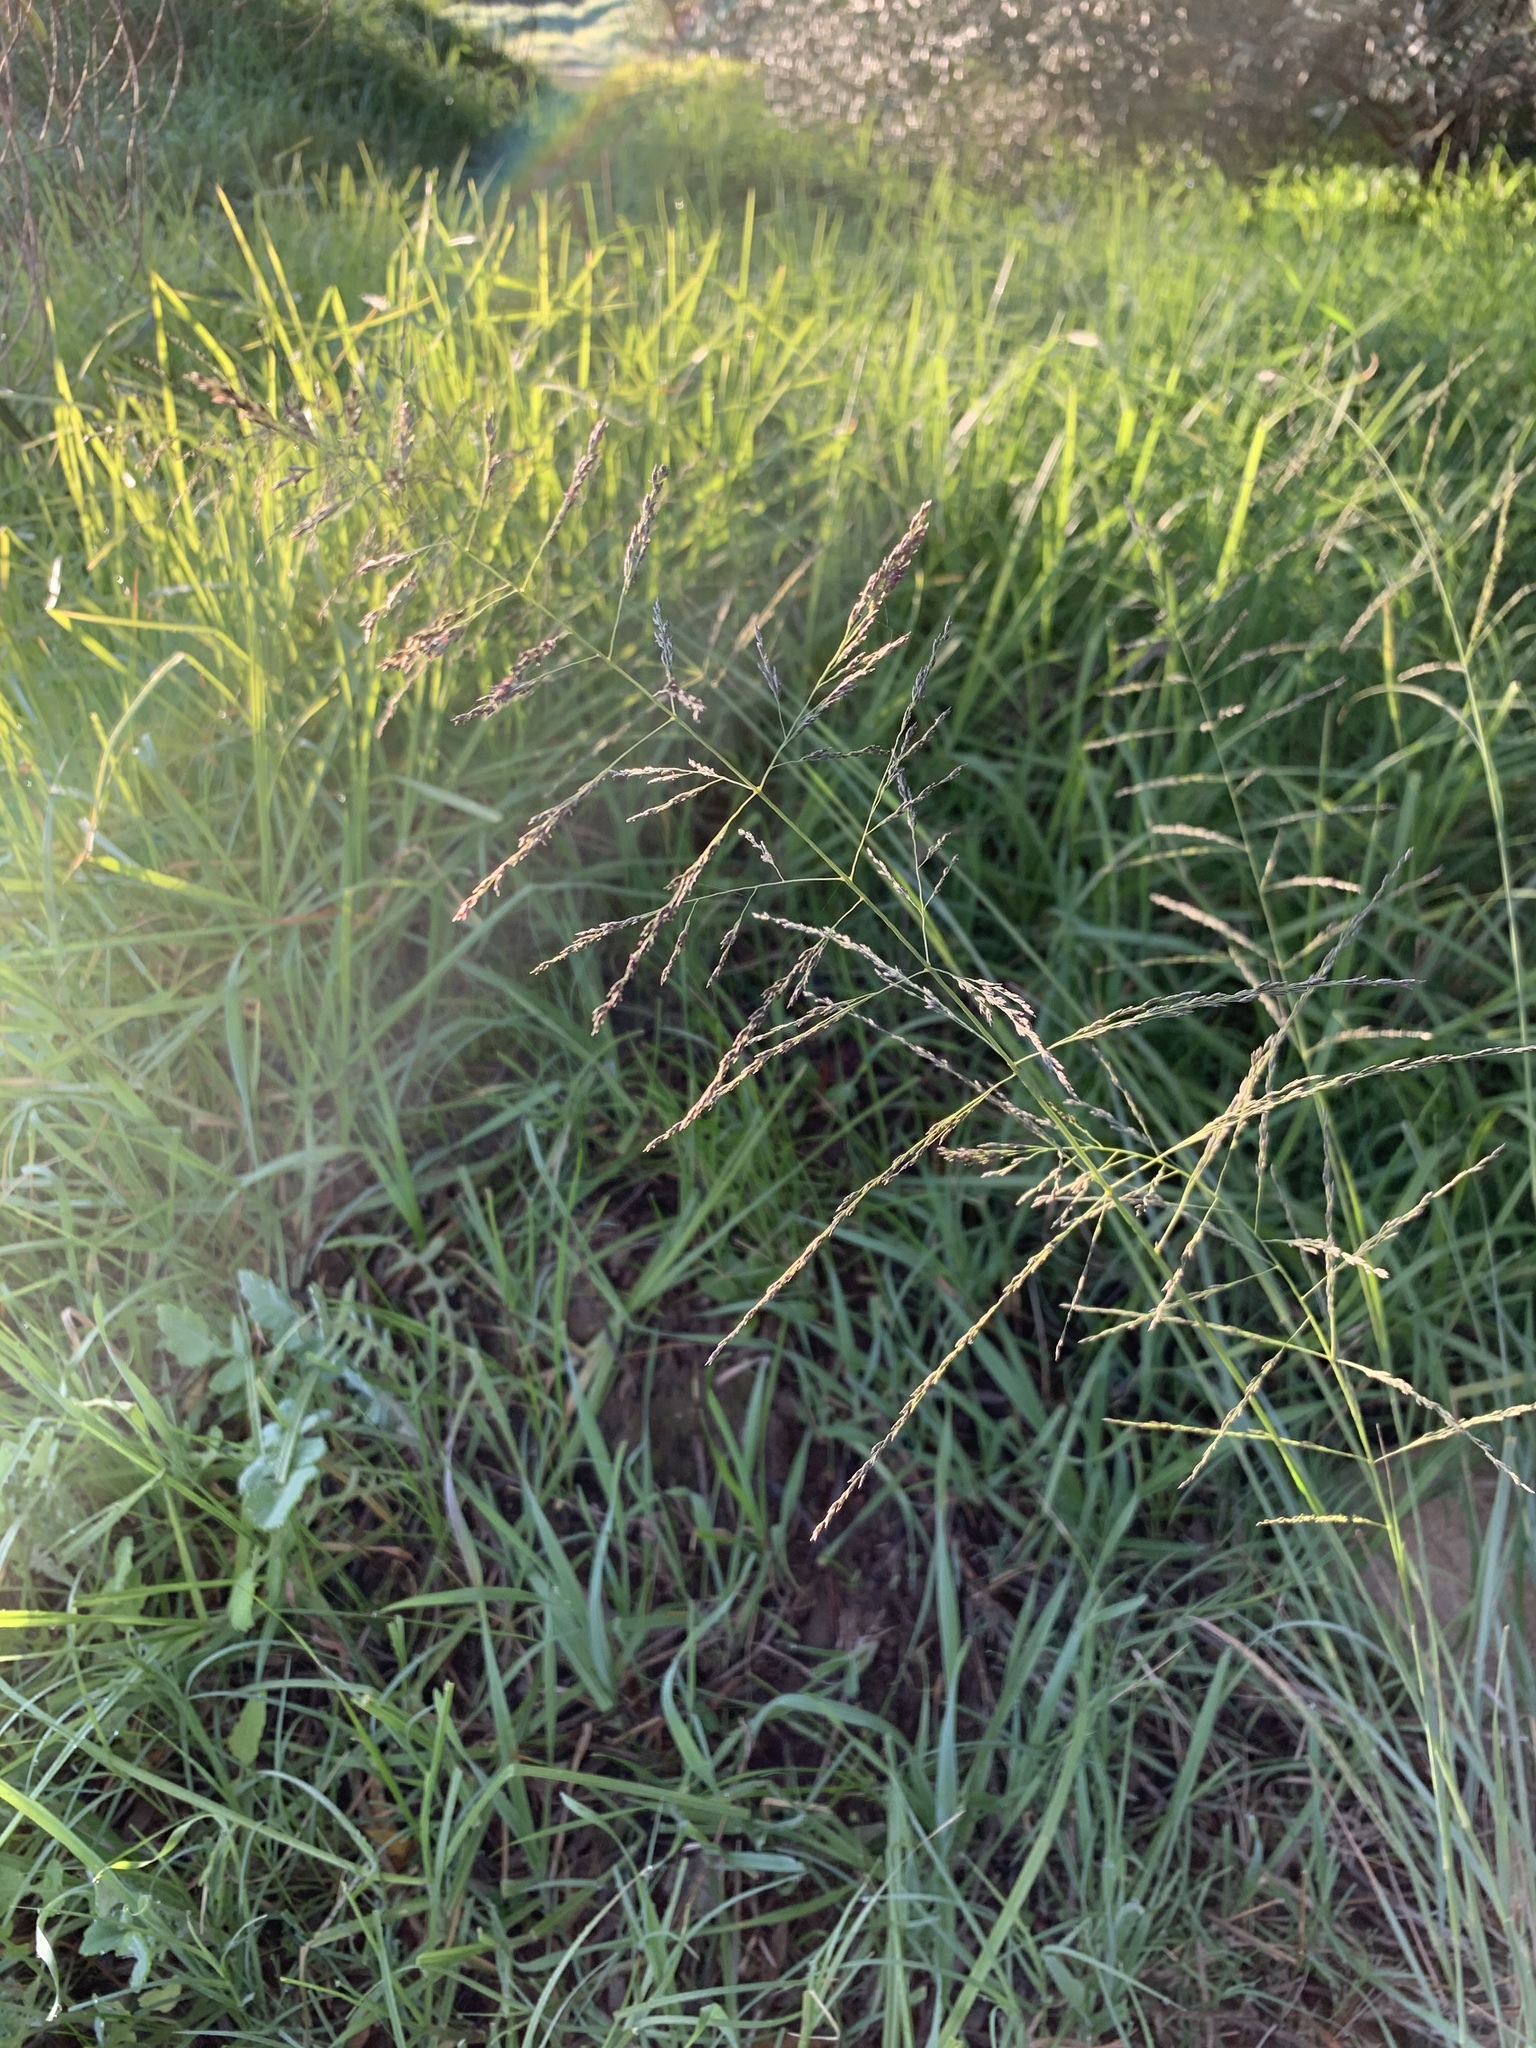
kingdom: Plantae
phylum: Tracheophyta
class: Liliopsida
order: Poales
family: Poaceae
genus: Eragrostis
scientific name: Eragrostis curvula
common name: African love-grass
